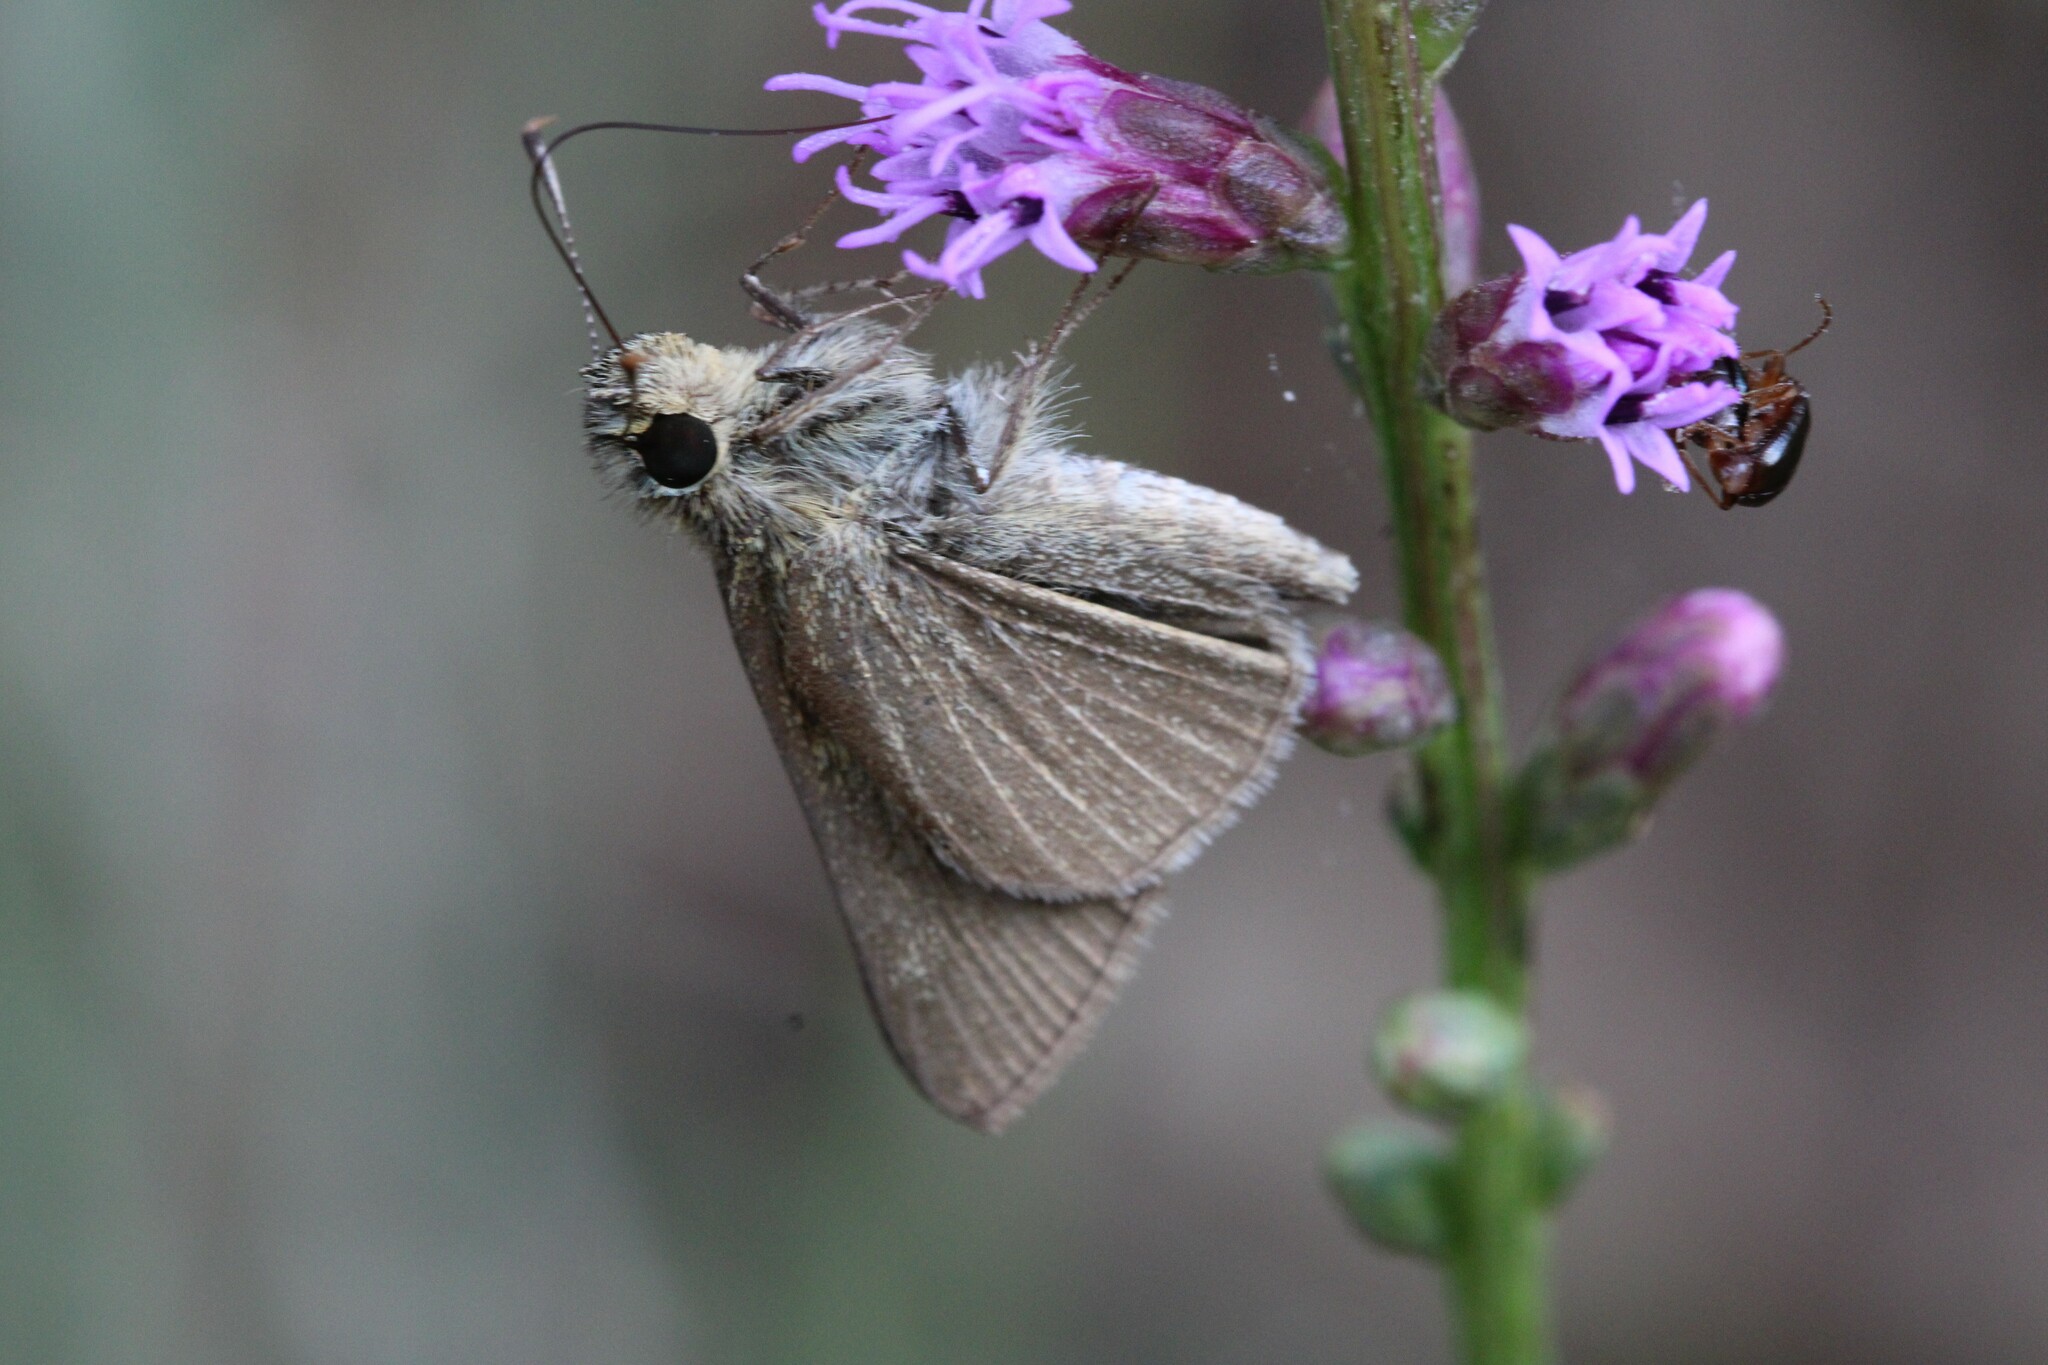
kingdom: Animalia
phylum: Arthropoda
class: Insecta
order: Lepidoptera
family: Hesperiidae
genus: Nastra
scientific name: Nastra lherminier
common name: Swarthy skipper
